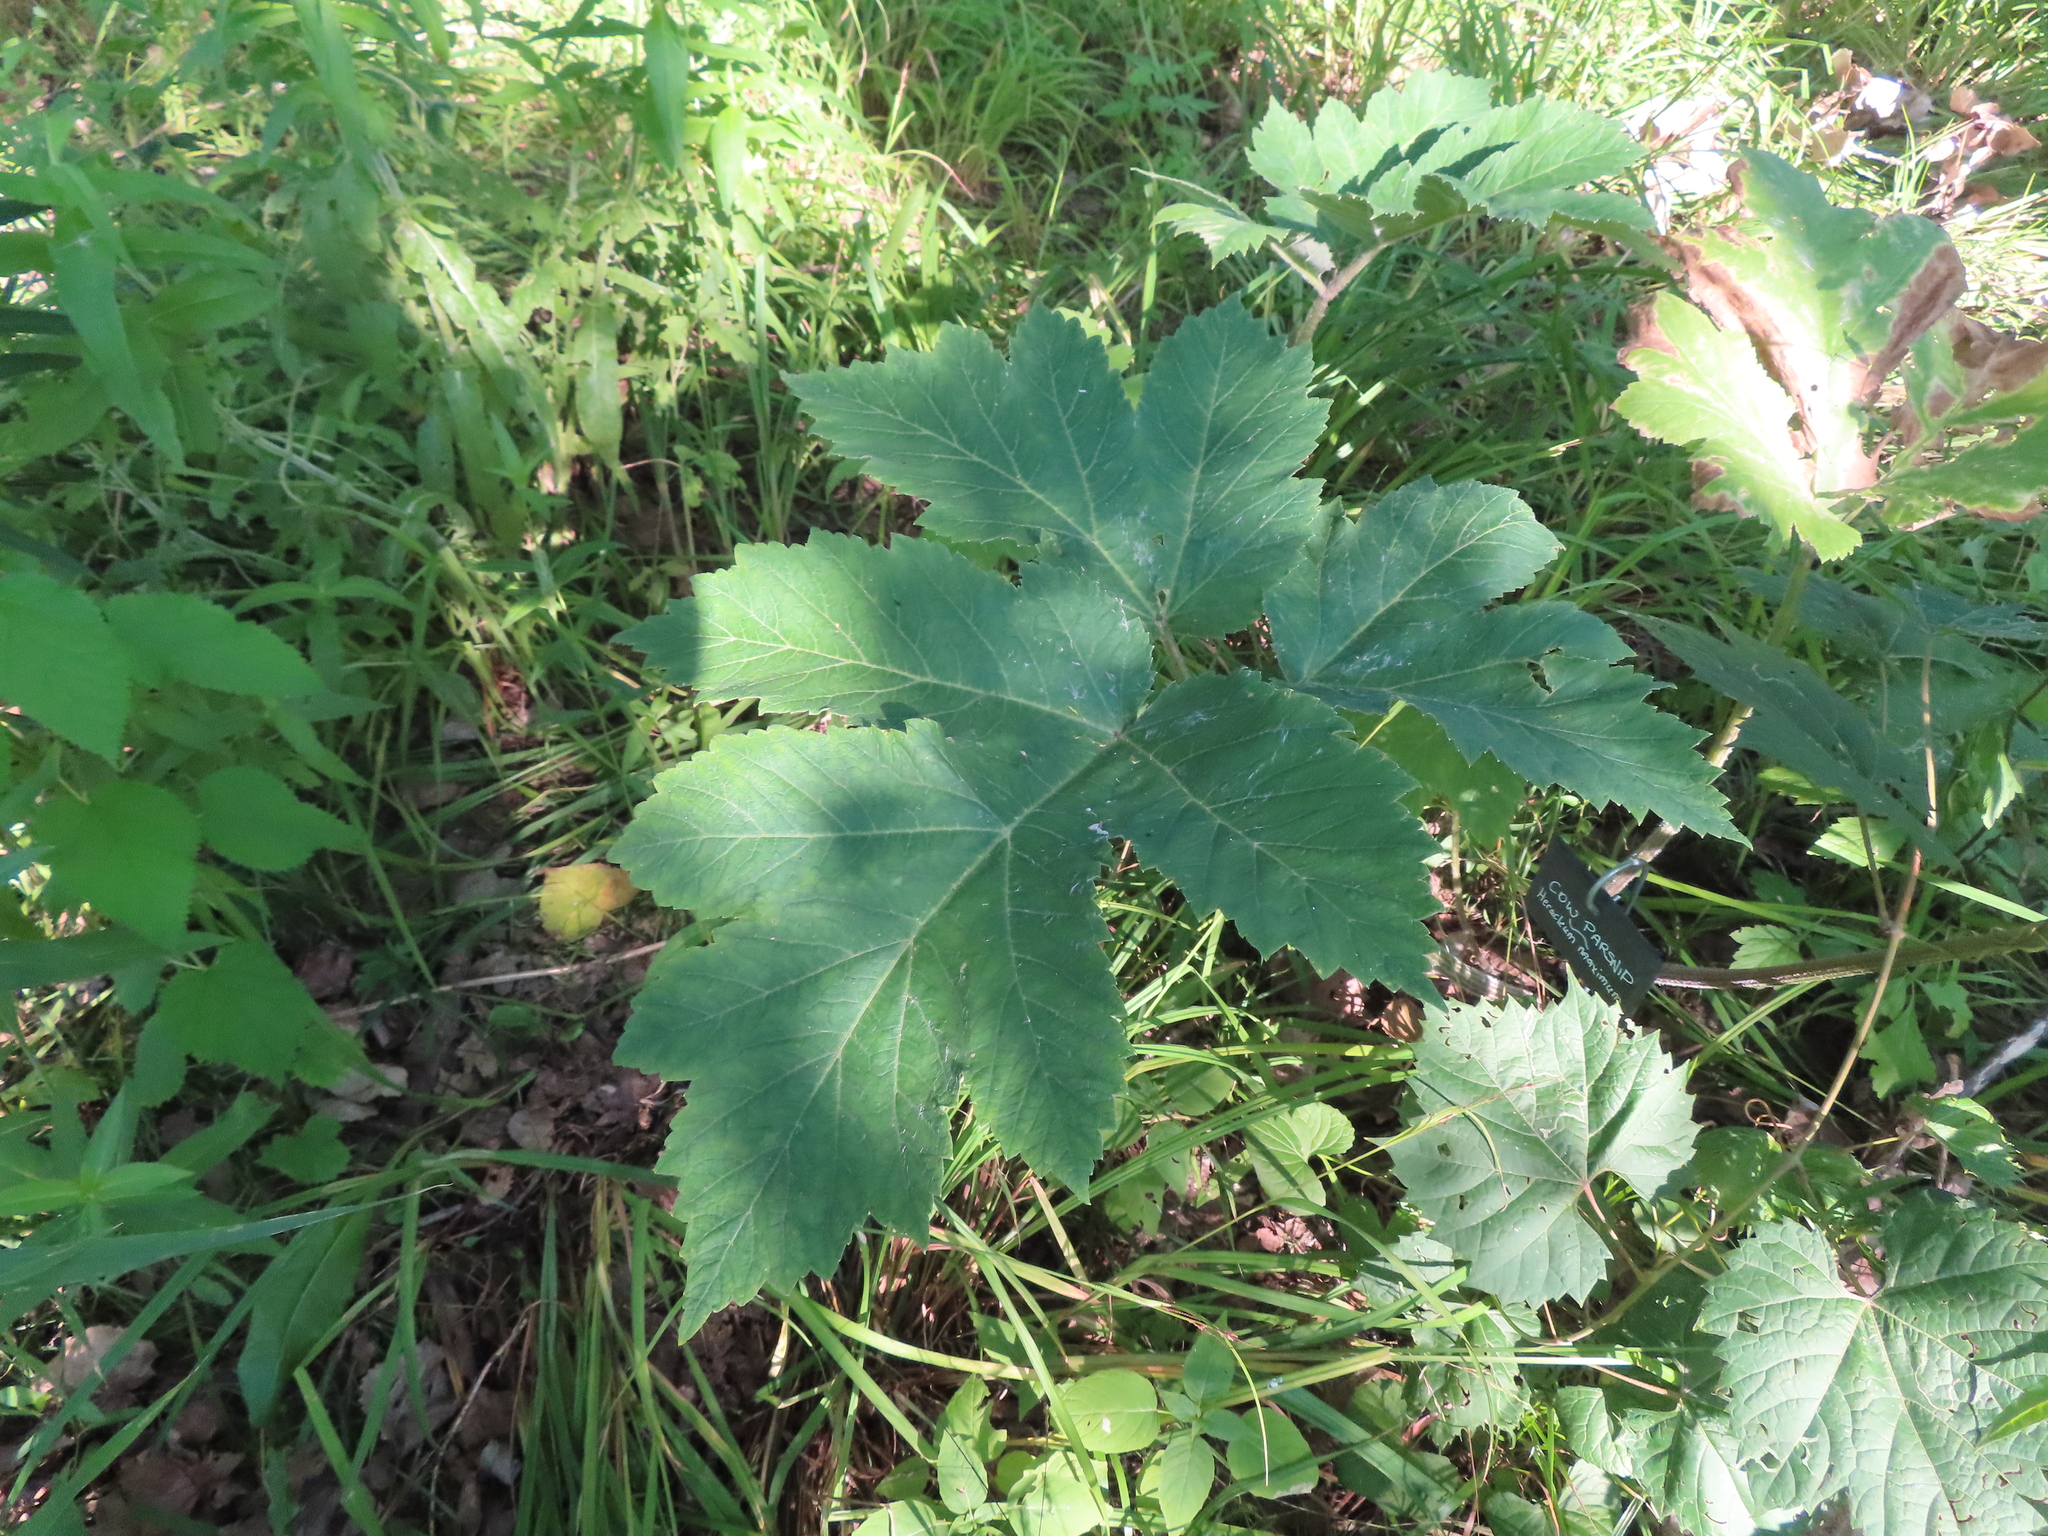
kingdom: Plantae
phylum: Tracheophyta
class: Magnoliopsida
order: Apiales
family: Apiaceae
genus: Heracleum
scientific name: Heracleum maximum
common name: American cow parsnip
